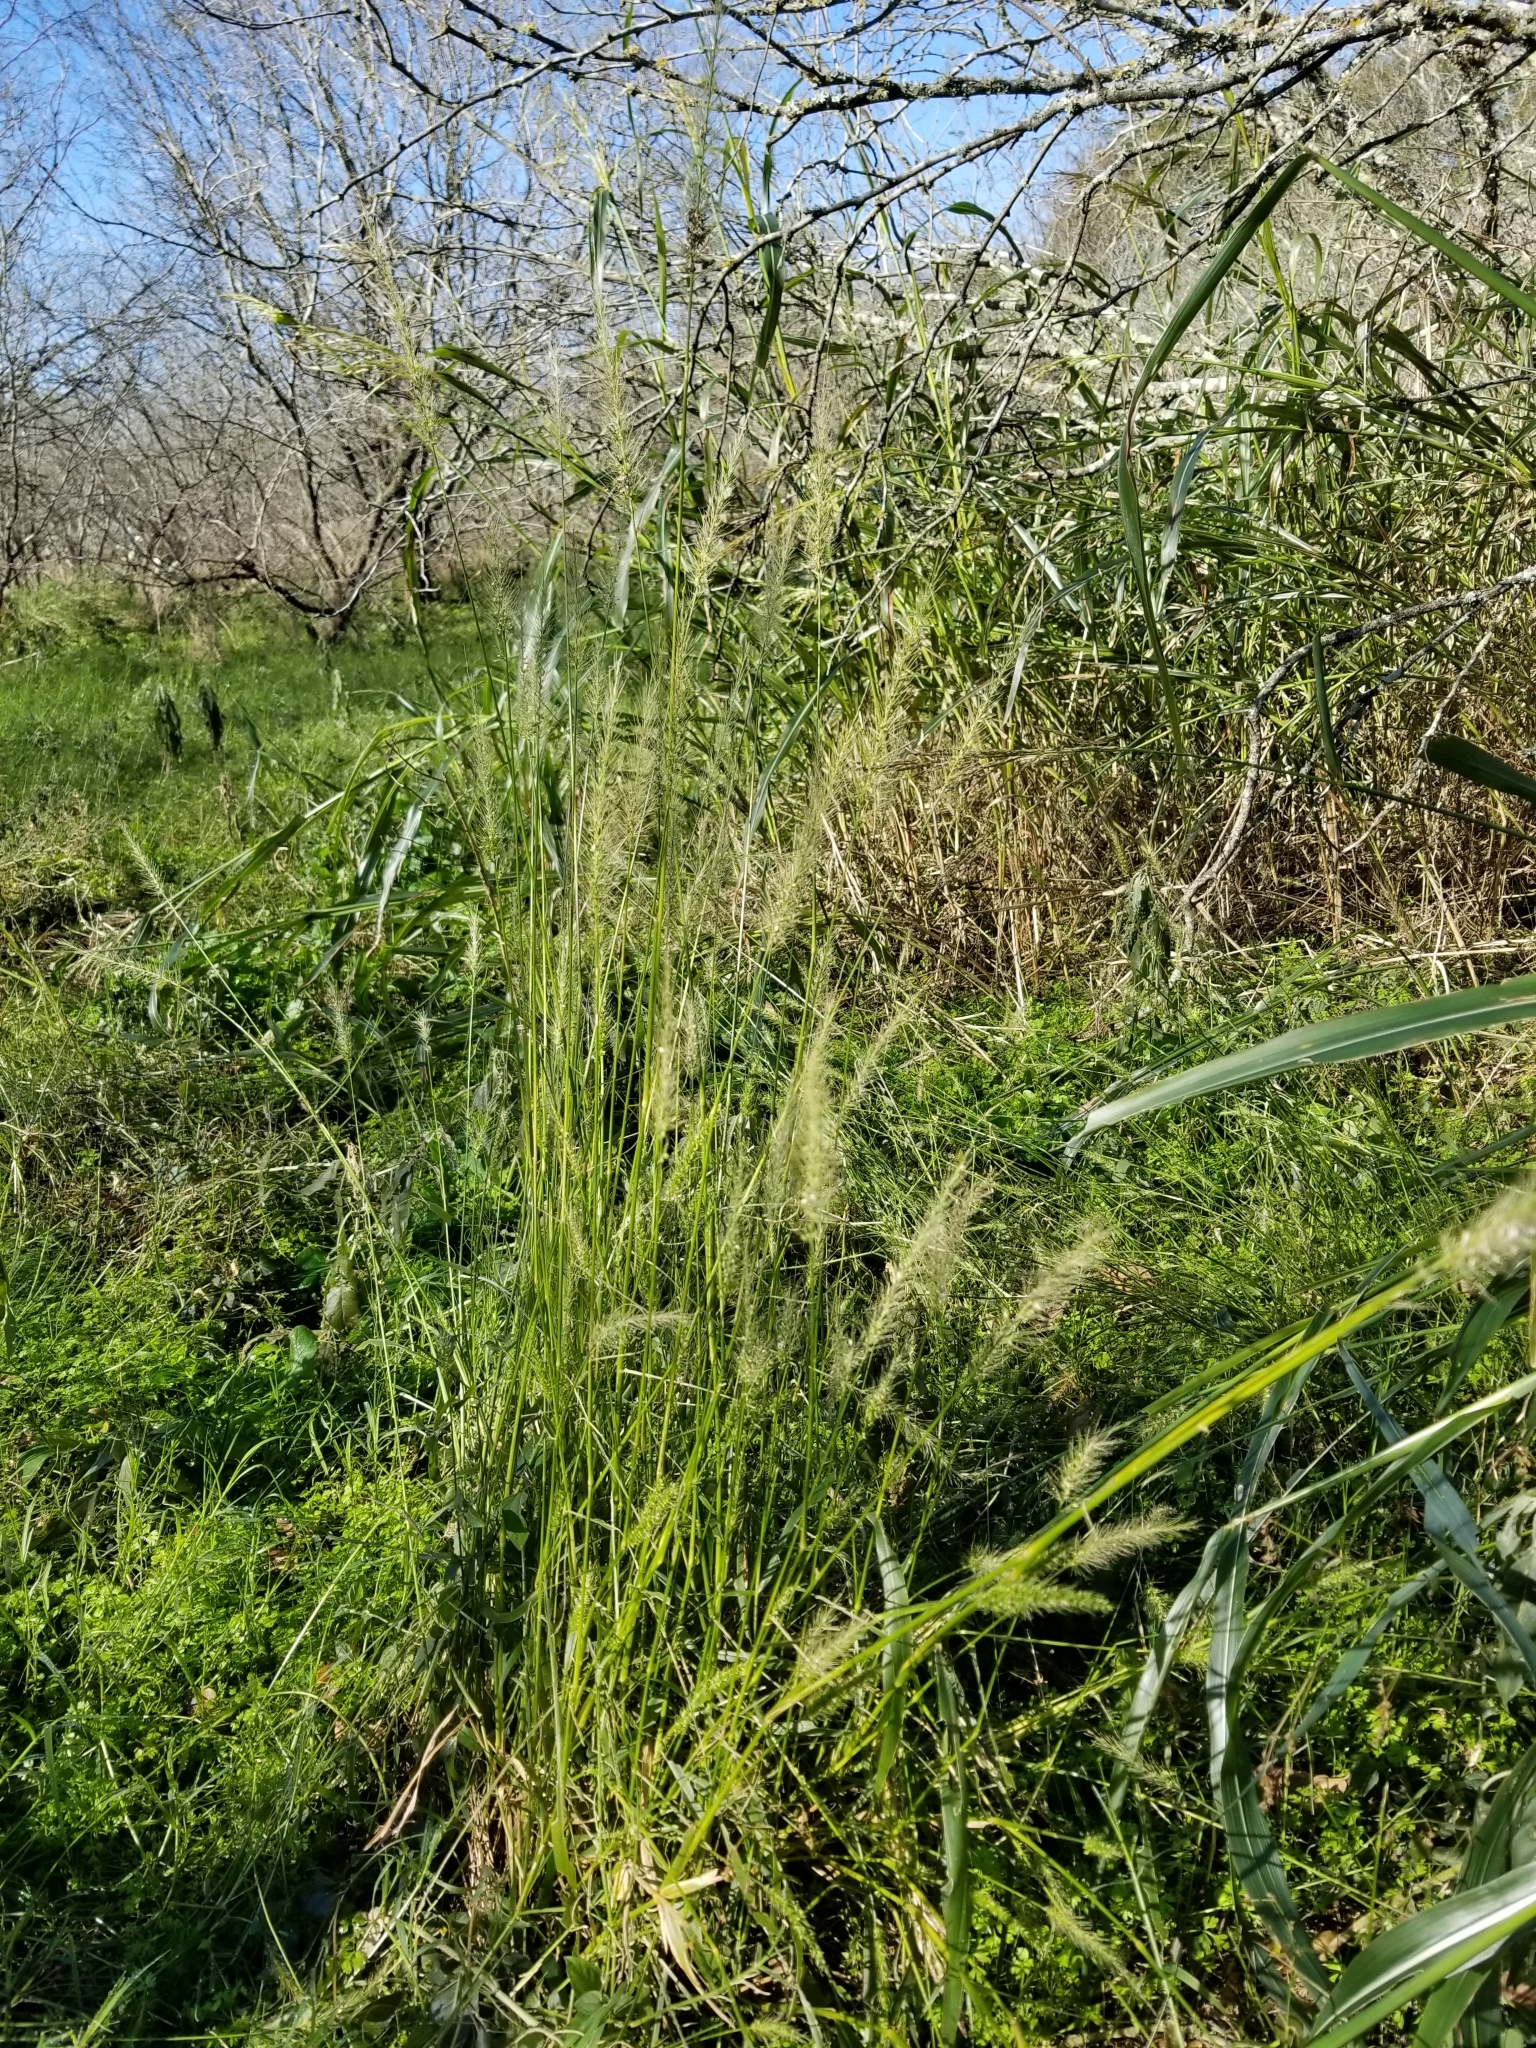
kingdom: Plantae
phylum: Tracheophyta
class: Liliopsida
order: Poales
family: Poaceae
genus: Setaria
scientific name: Setaria scheelei
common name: Southwestern bristle grass
